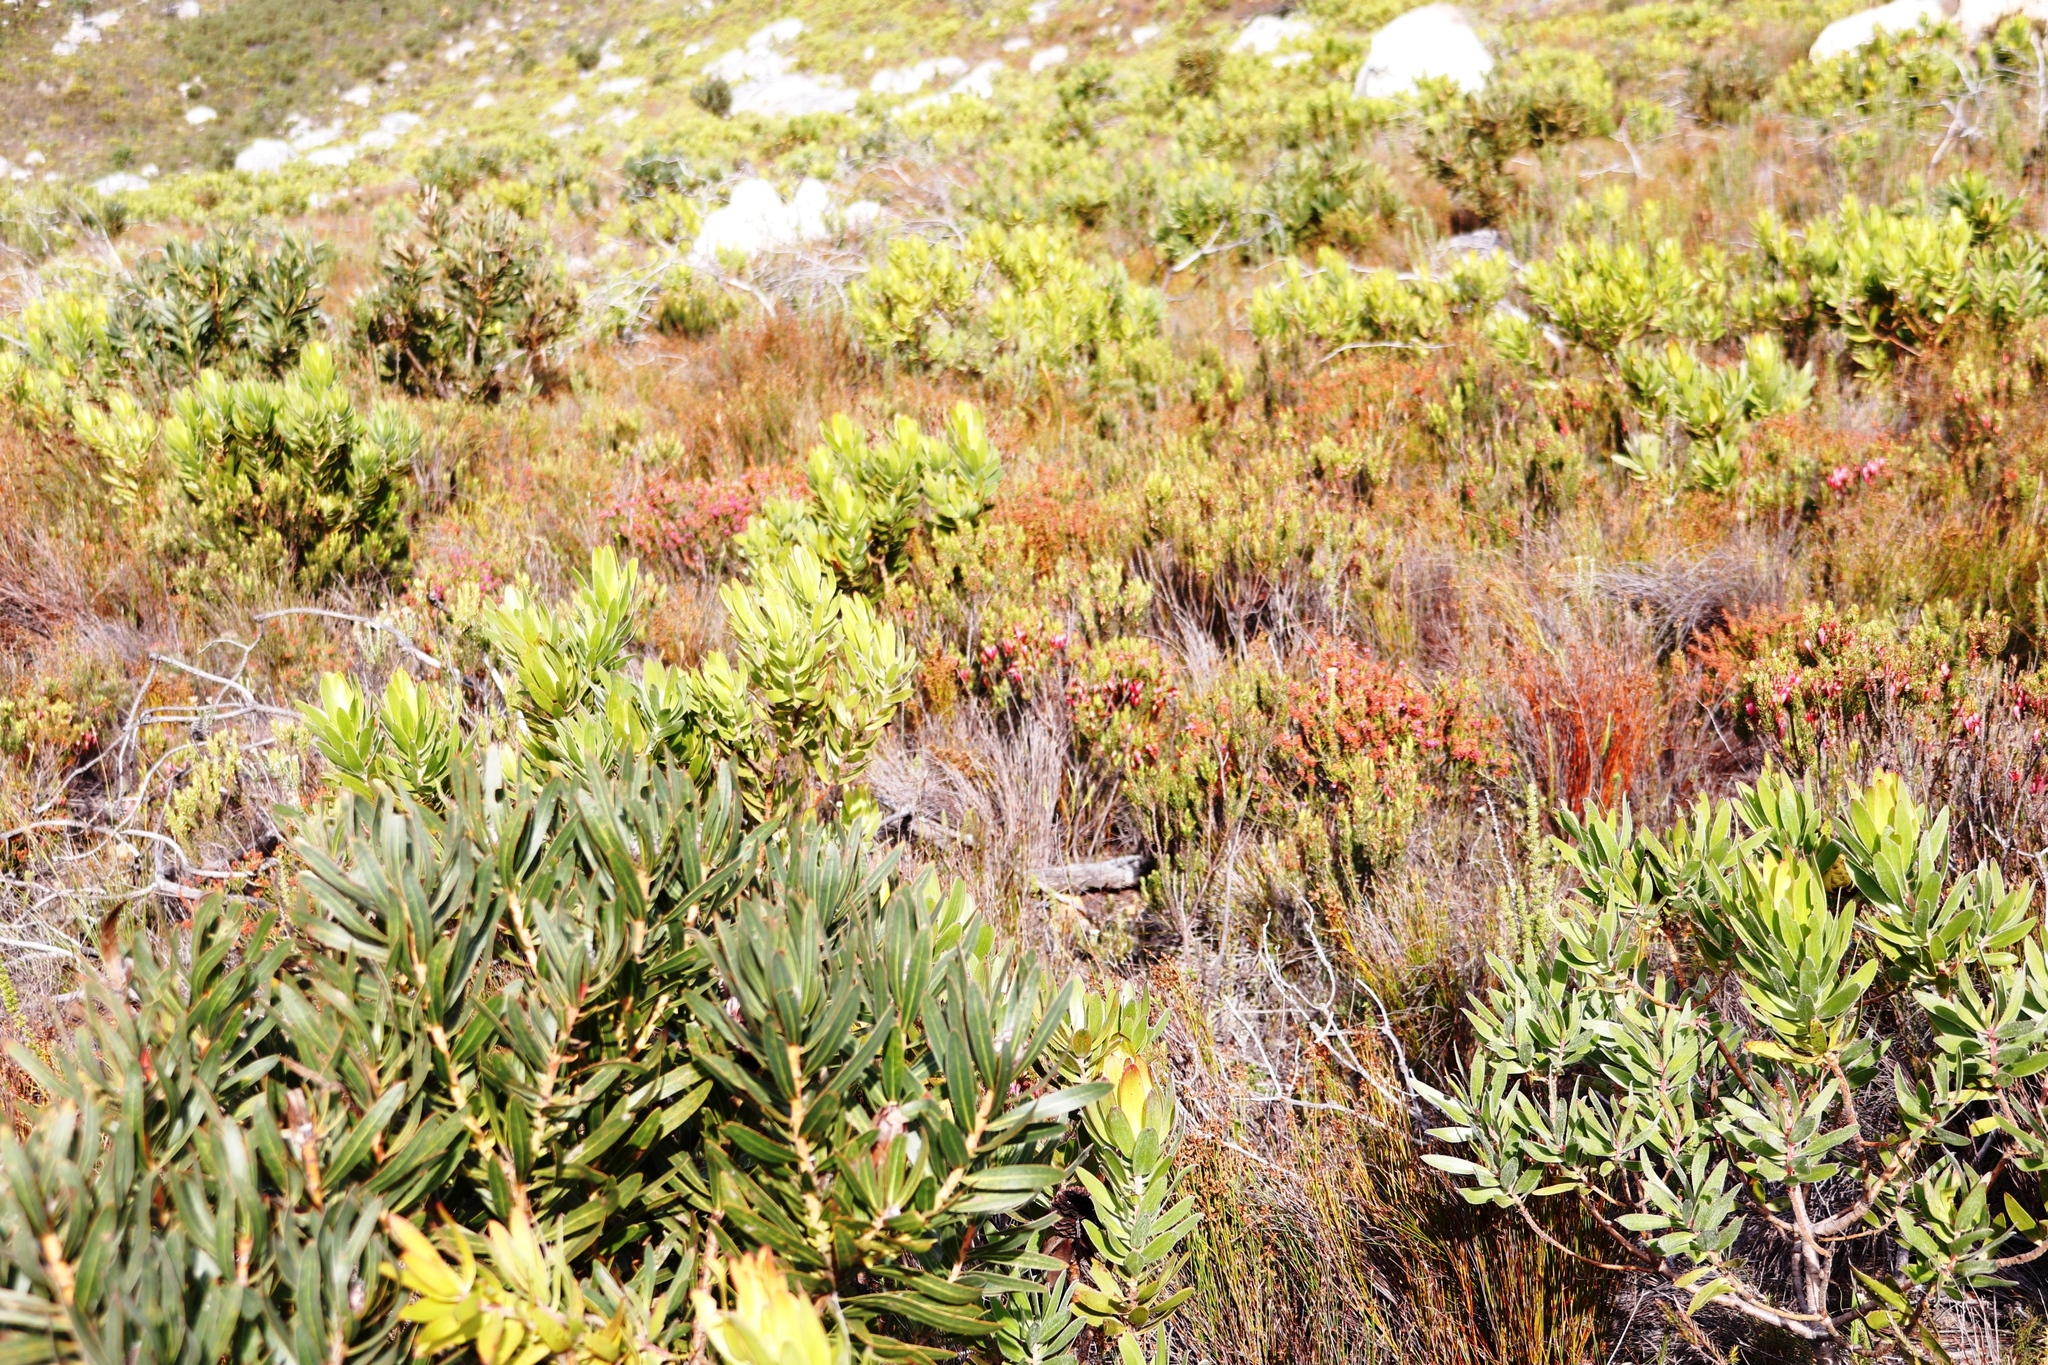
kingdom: Plantae
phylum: Tracheophyta
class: Magnoliopsida
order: Proteales
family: Proteaceae
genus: Leucadendron
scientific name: Leucadendron laureolum
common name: Golden sunshinebush
